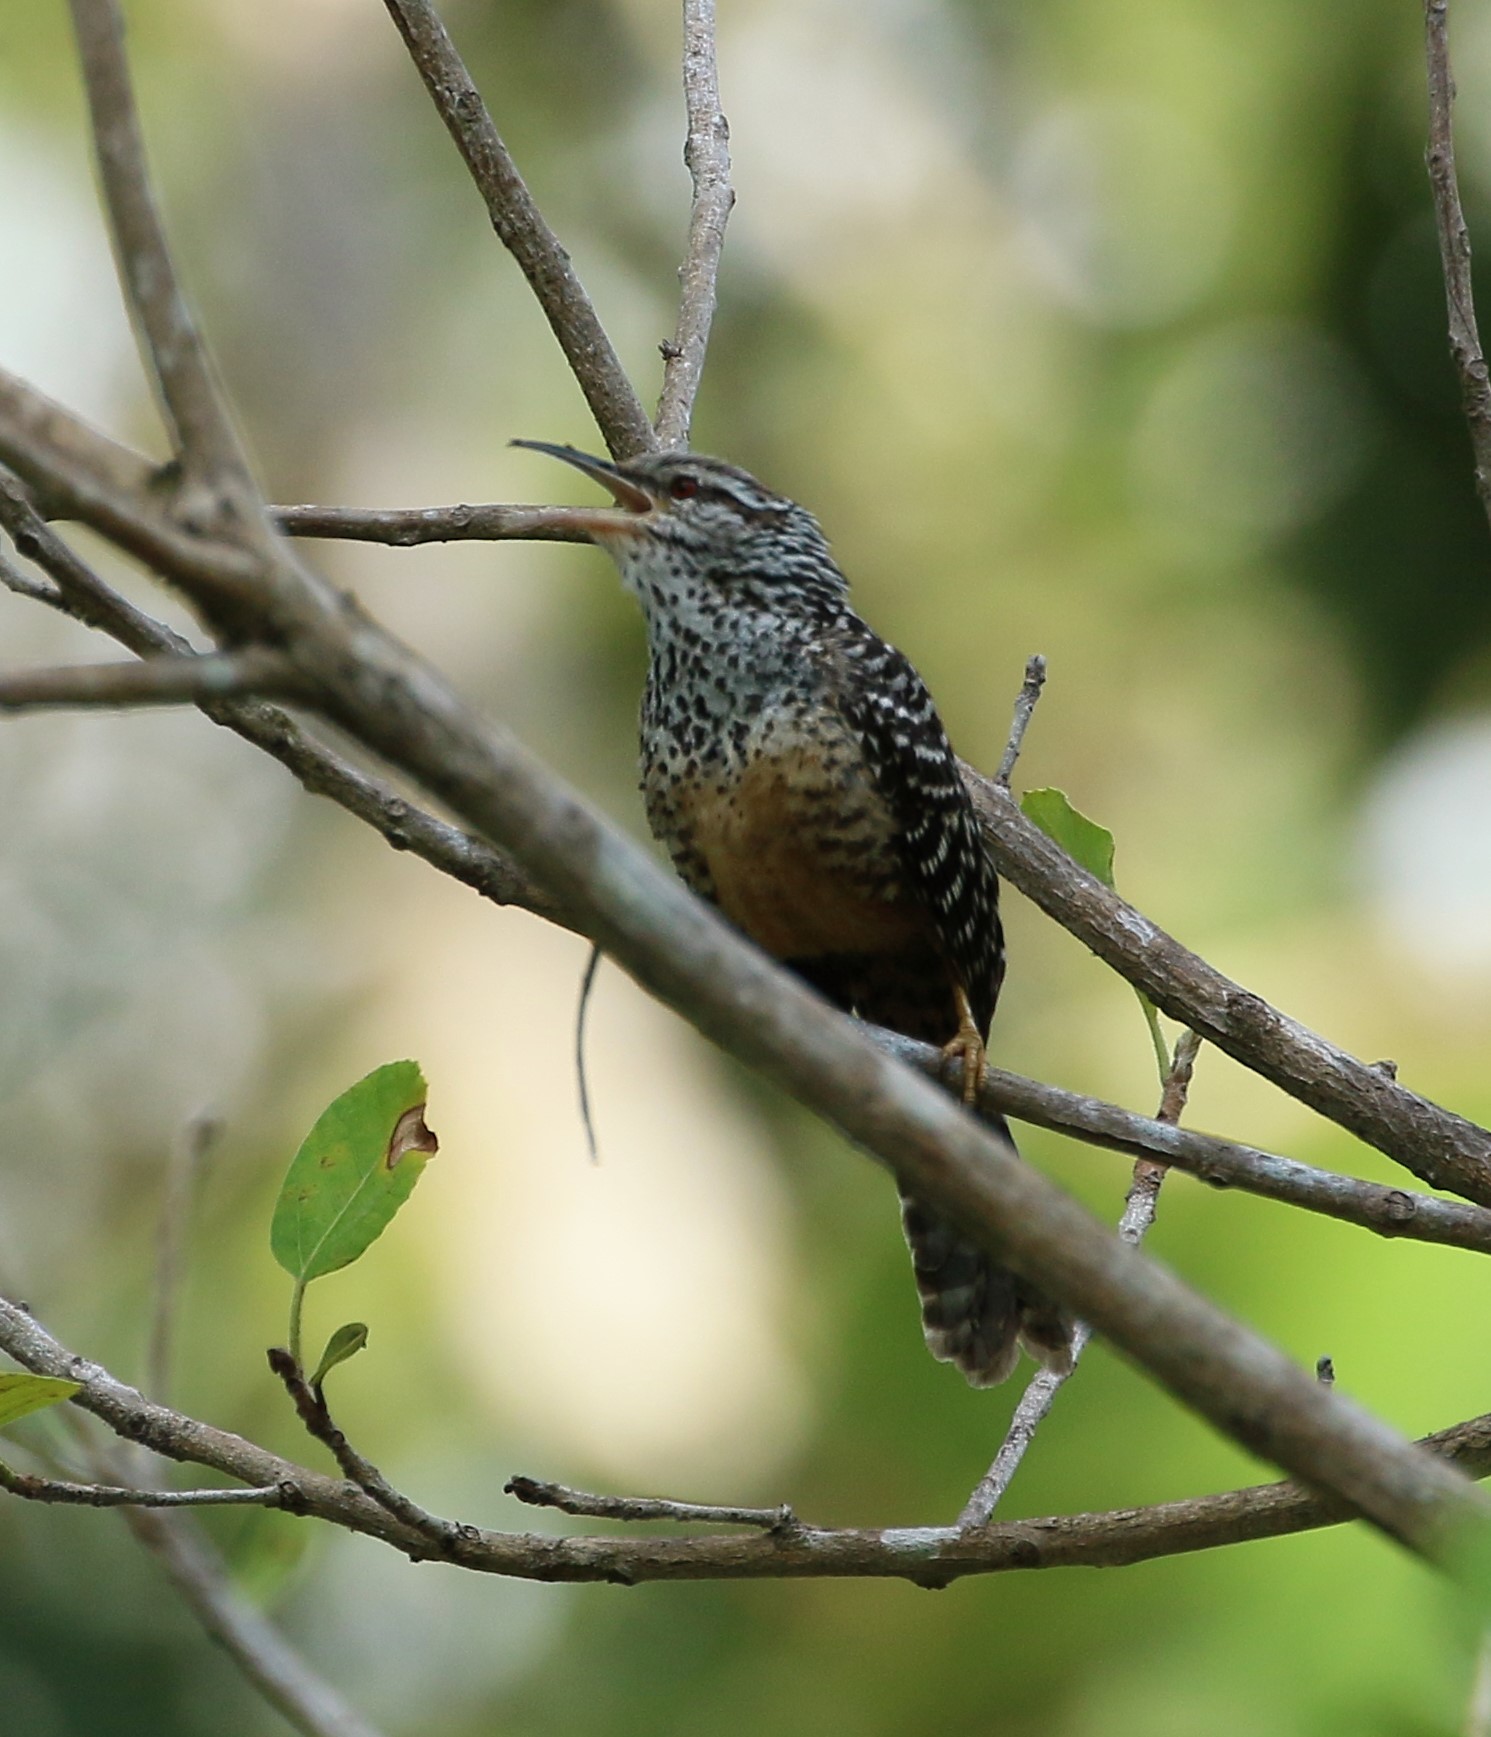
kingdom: Animalia
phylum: Chordata
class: Aves
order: Passeriformes
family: Troglodytidae
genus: Campylorhynchus
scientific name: Campylorhynchus zonatus
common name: Band-backed wren
